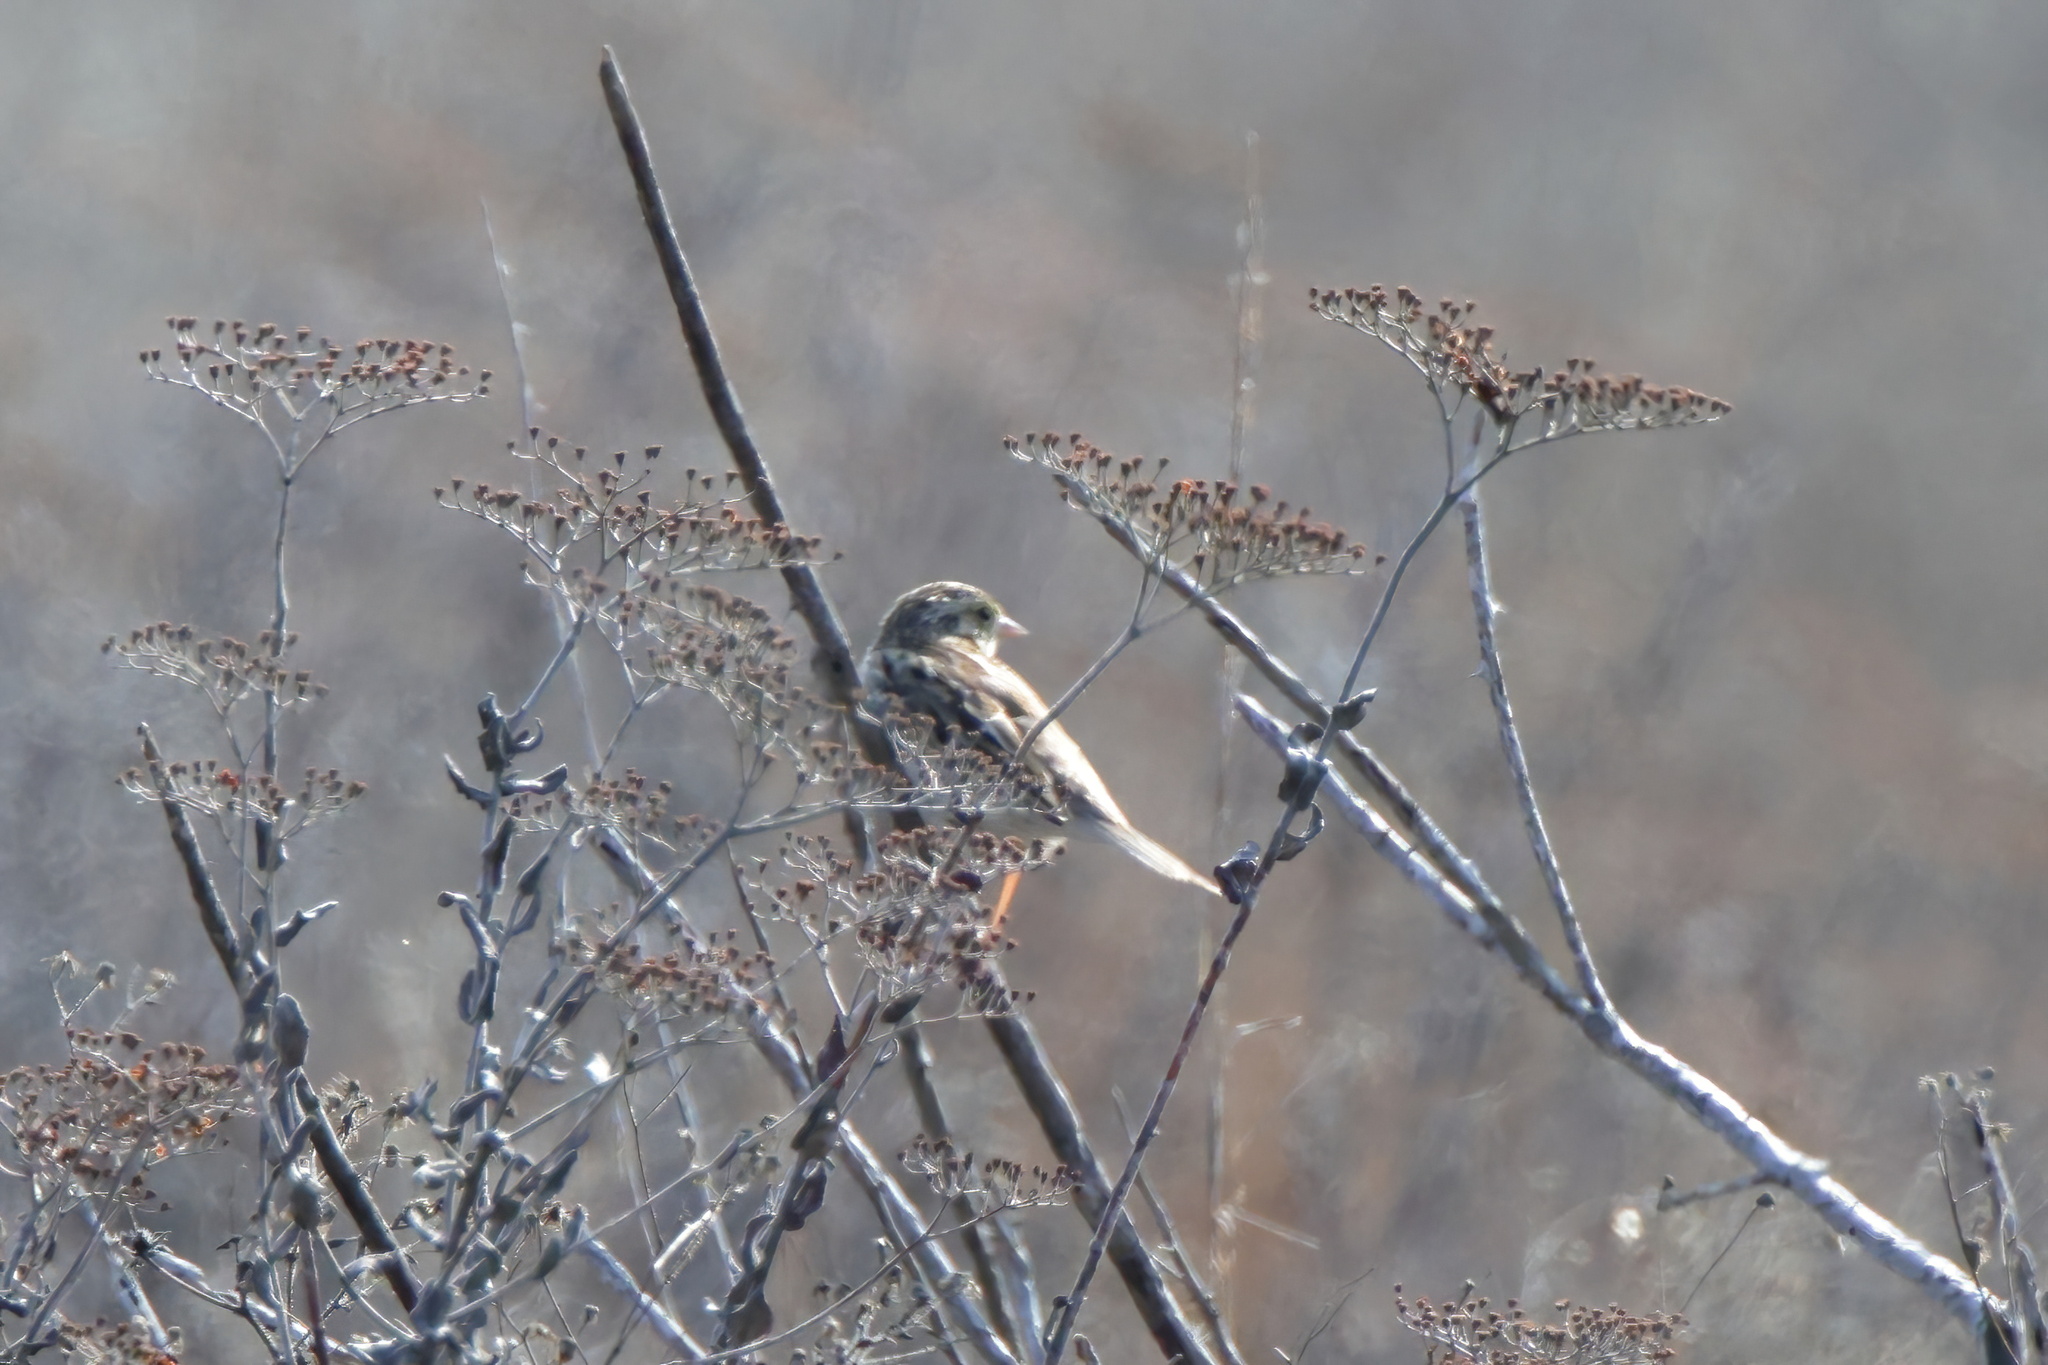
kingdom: Animalia
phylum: Chordata
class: Aves
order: Passeriformes
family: Passerellidae
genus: Passerculus
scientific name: Passerculus sandwichensis
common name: Savannah sparrow
